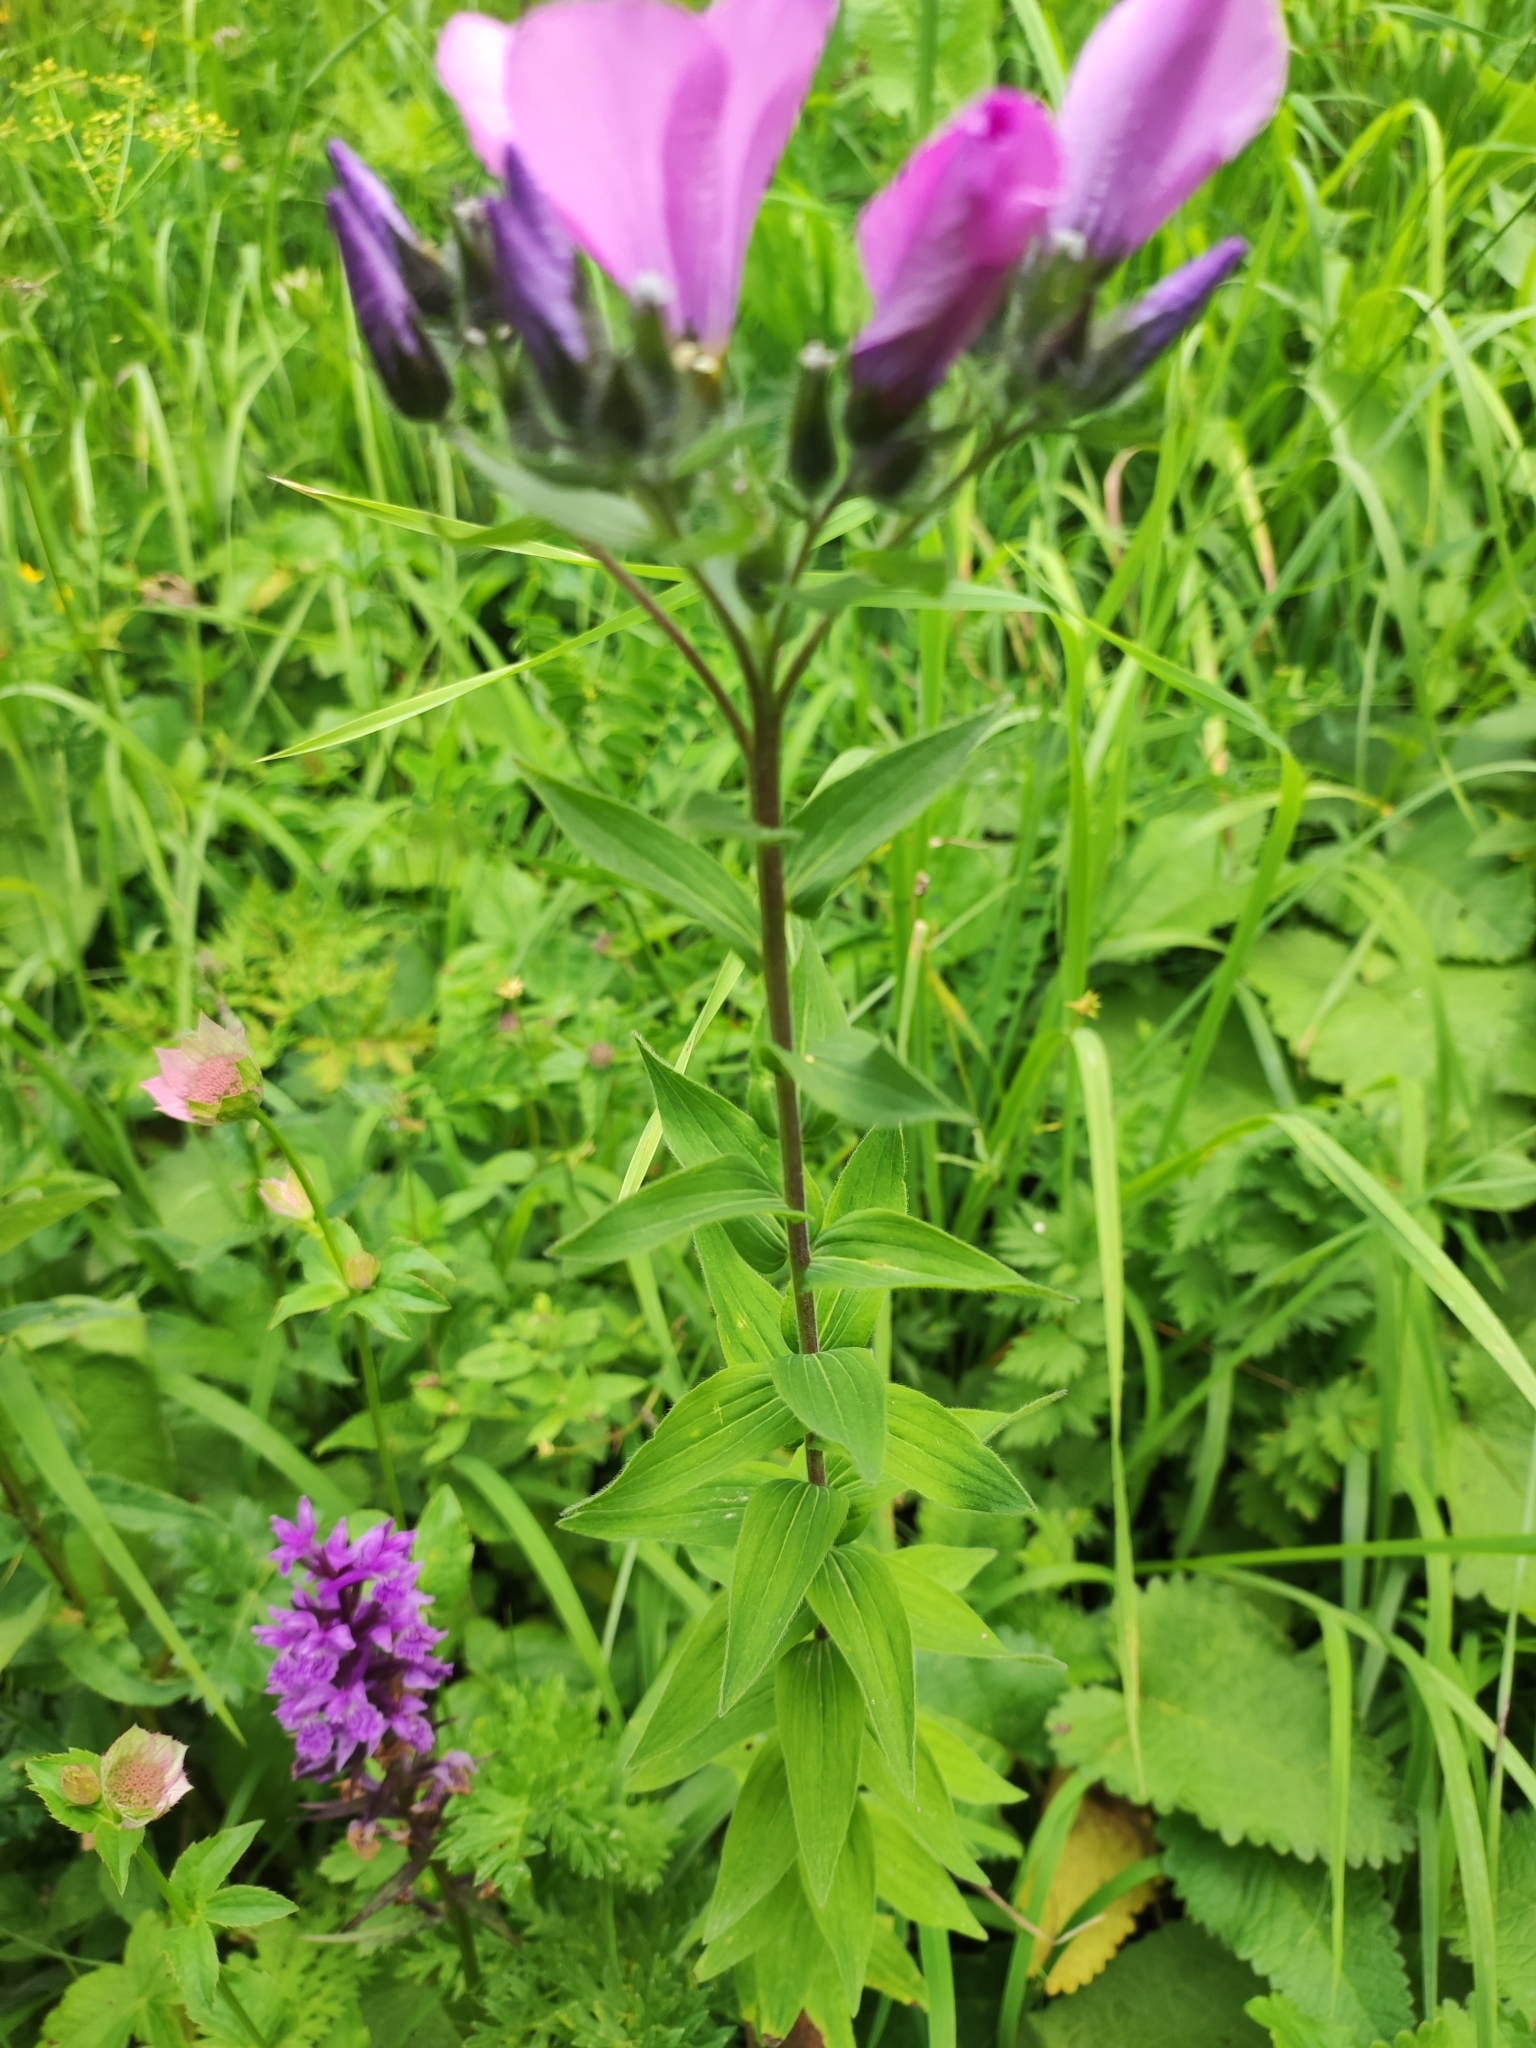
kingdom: Plantae
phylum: Tracheophyta
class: Magnoliopsida
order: Malpighiales
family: Linaceae
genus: Linum
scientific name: Linum hypericifolium
